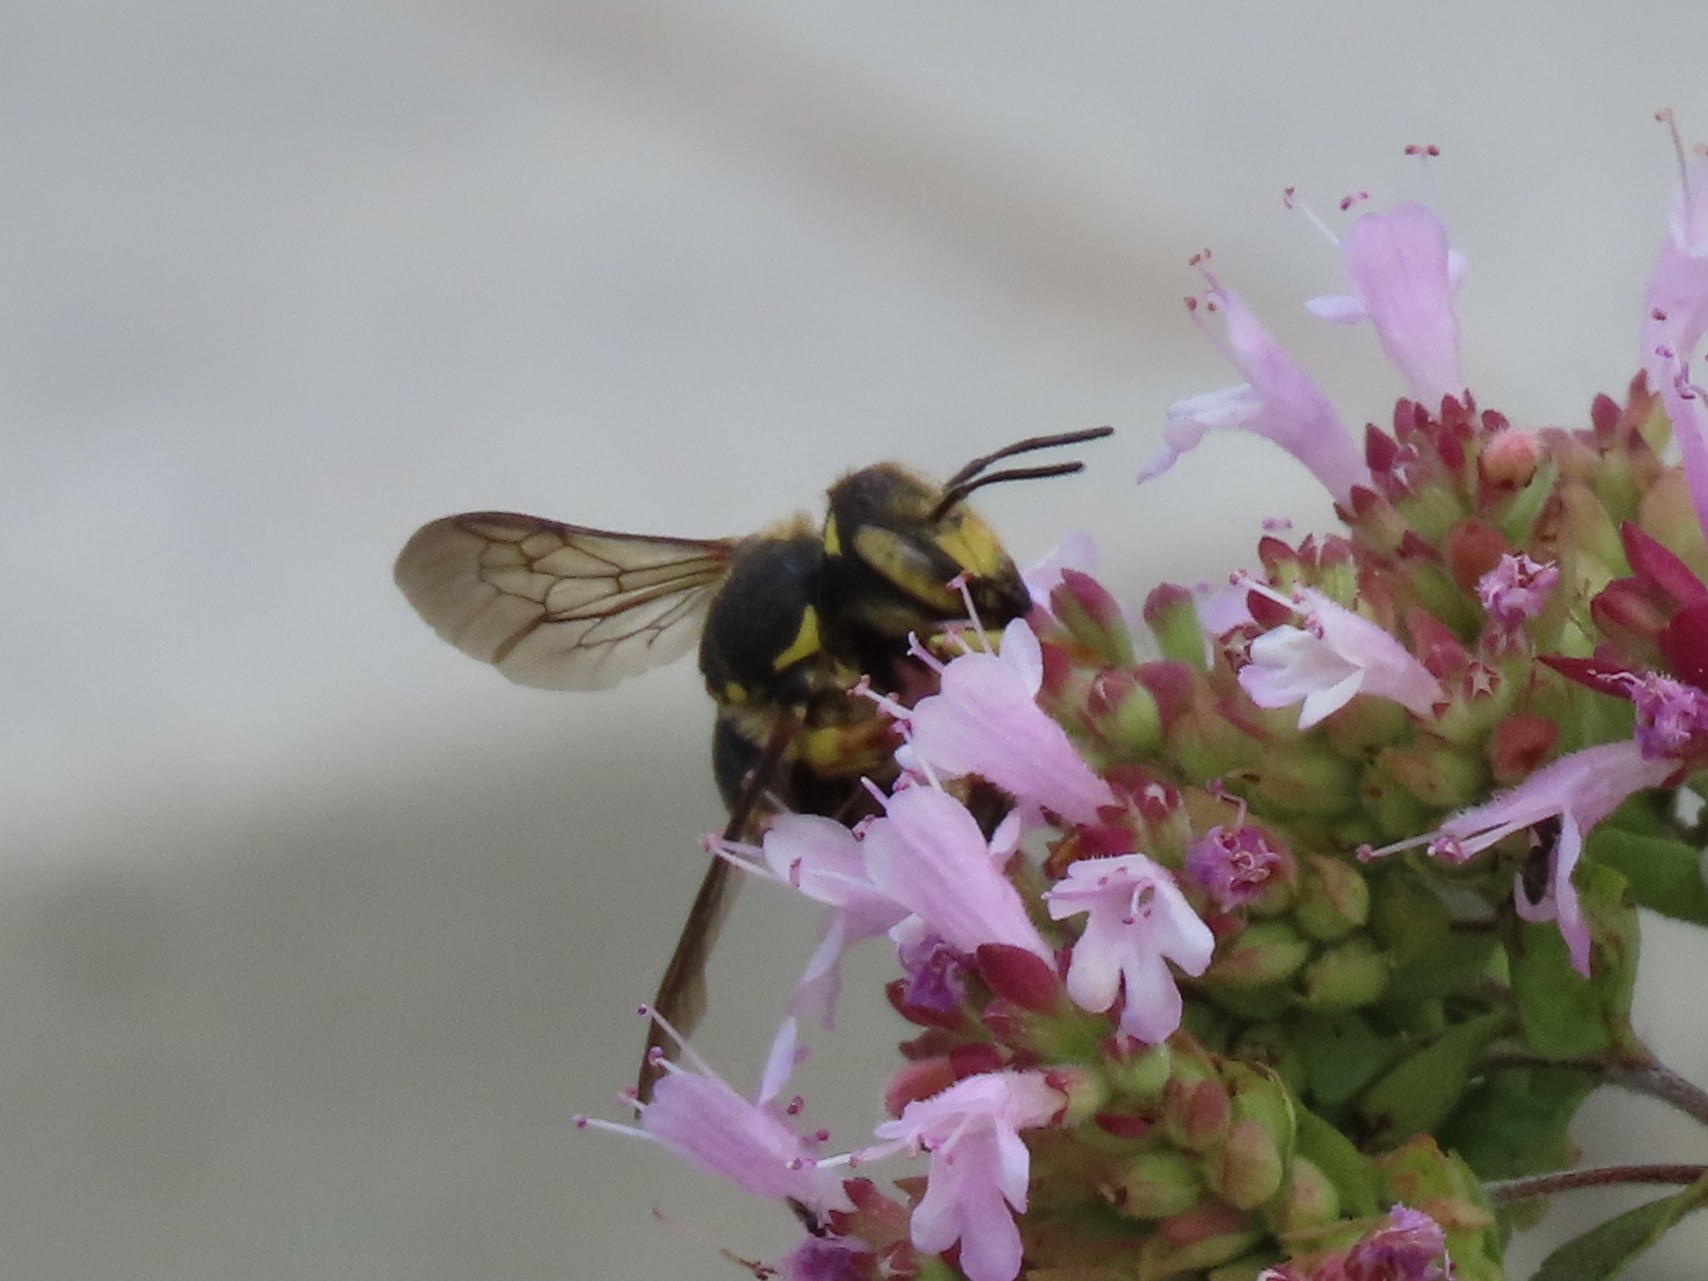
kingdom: Animalia
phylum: Arthropoda
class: Insecta
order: Hymenoptera
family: Megachilidae
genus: Anthidium
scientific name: Anthidium florentinum
